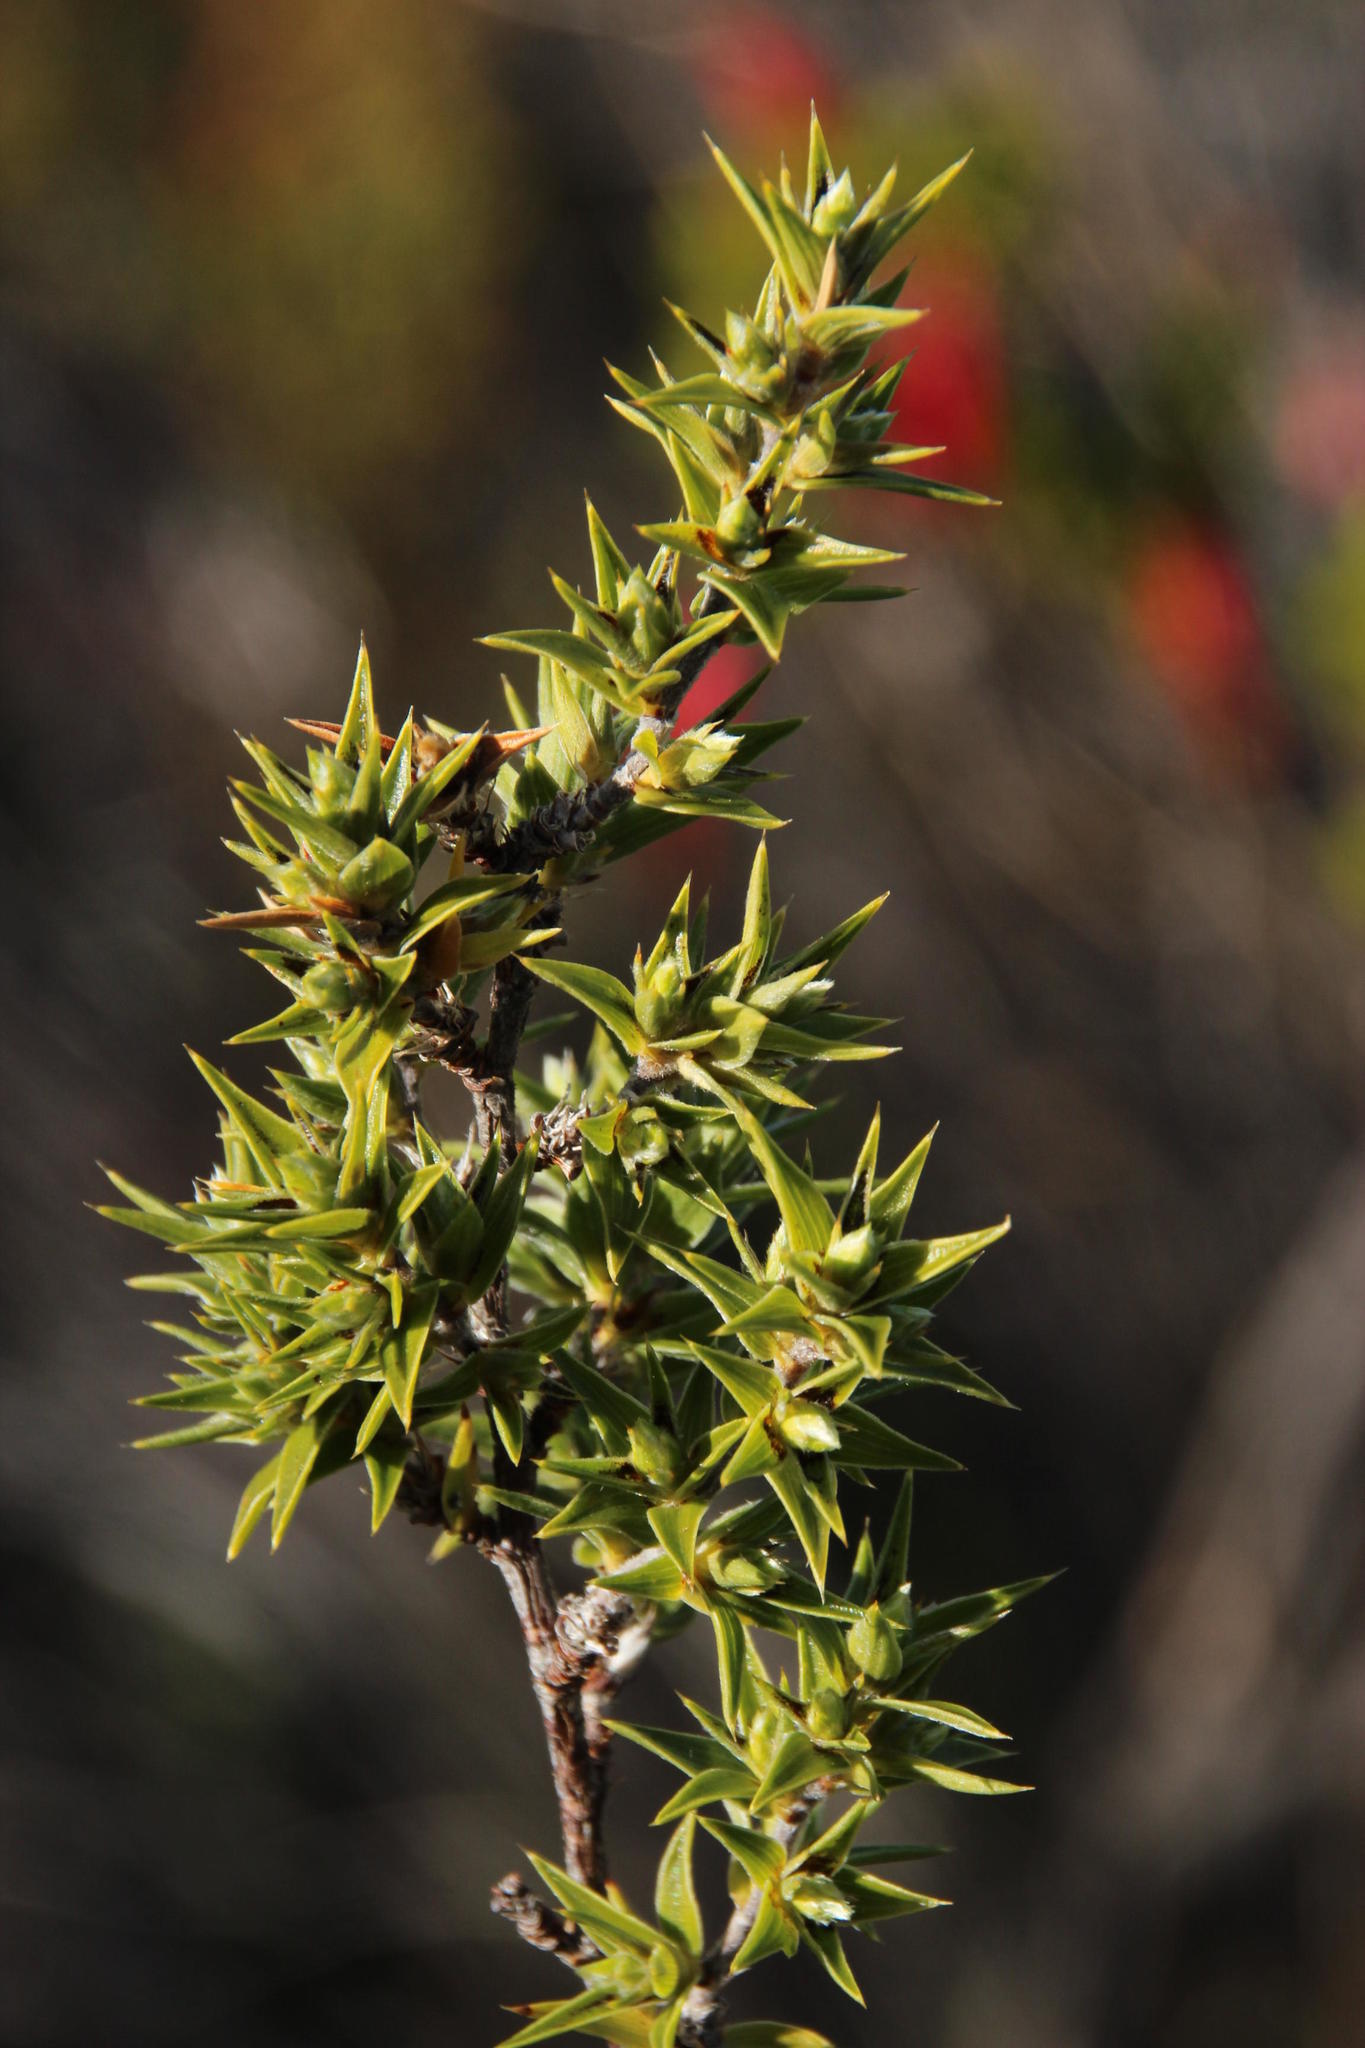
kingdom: Plantae
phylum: Tracheophyta
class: Magnoliopsida
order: Rosales
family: Rosaceae
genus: Cliffortia
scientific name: Cliffortia ruscifolia
